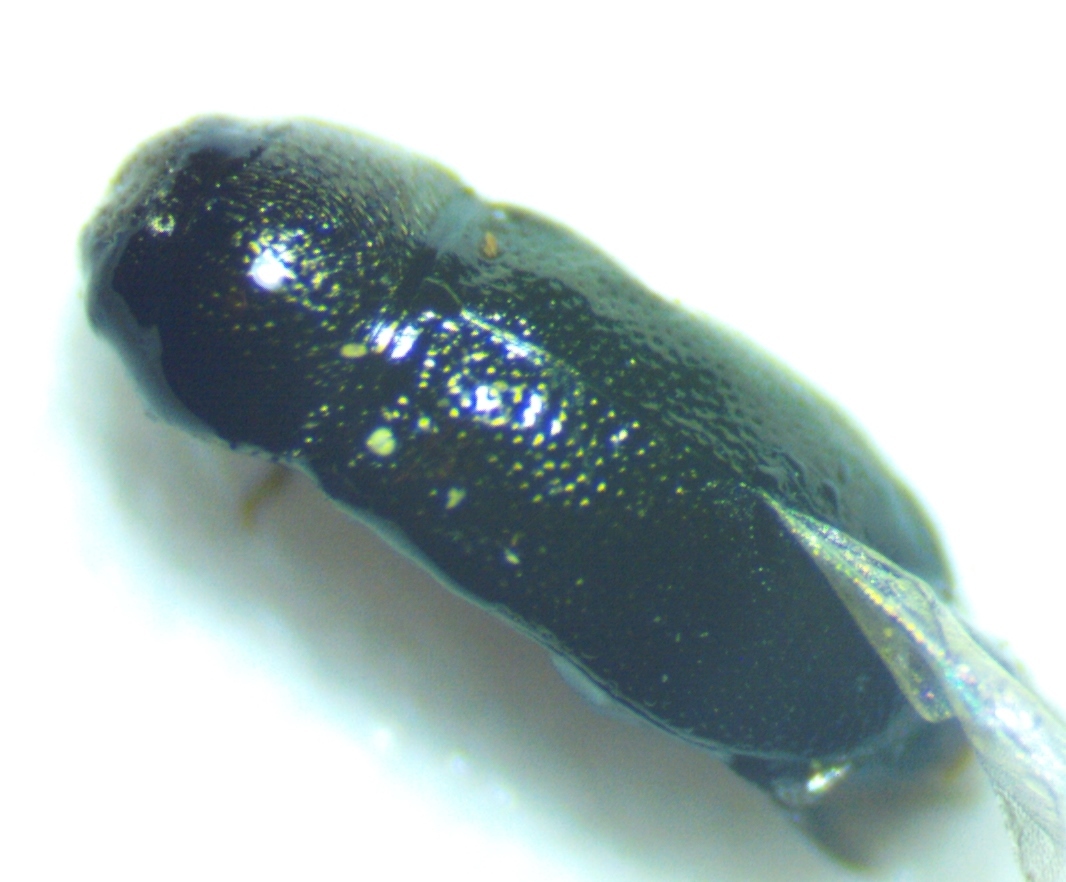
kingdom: Animalia
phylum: Arthropoda
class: Insecta
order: Coleoptera
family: Buprestidae
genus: Mastogenius
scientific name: Mastogenius crenulatus
